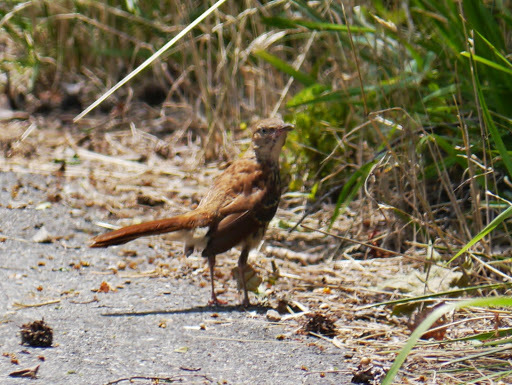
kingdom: Animalia
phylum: Chordata
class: Aves
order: Passeriformes
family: Mimidae
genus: Toxostoma
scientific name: Toxostoma rufum
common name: Brown thrasher
